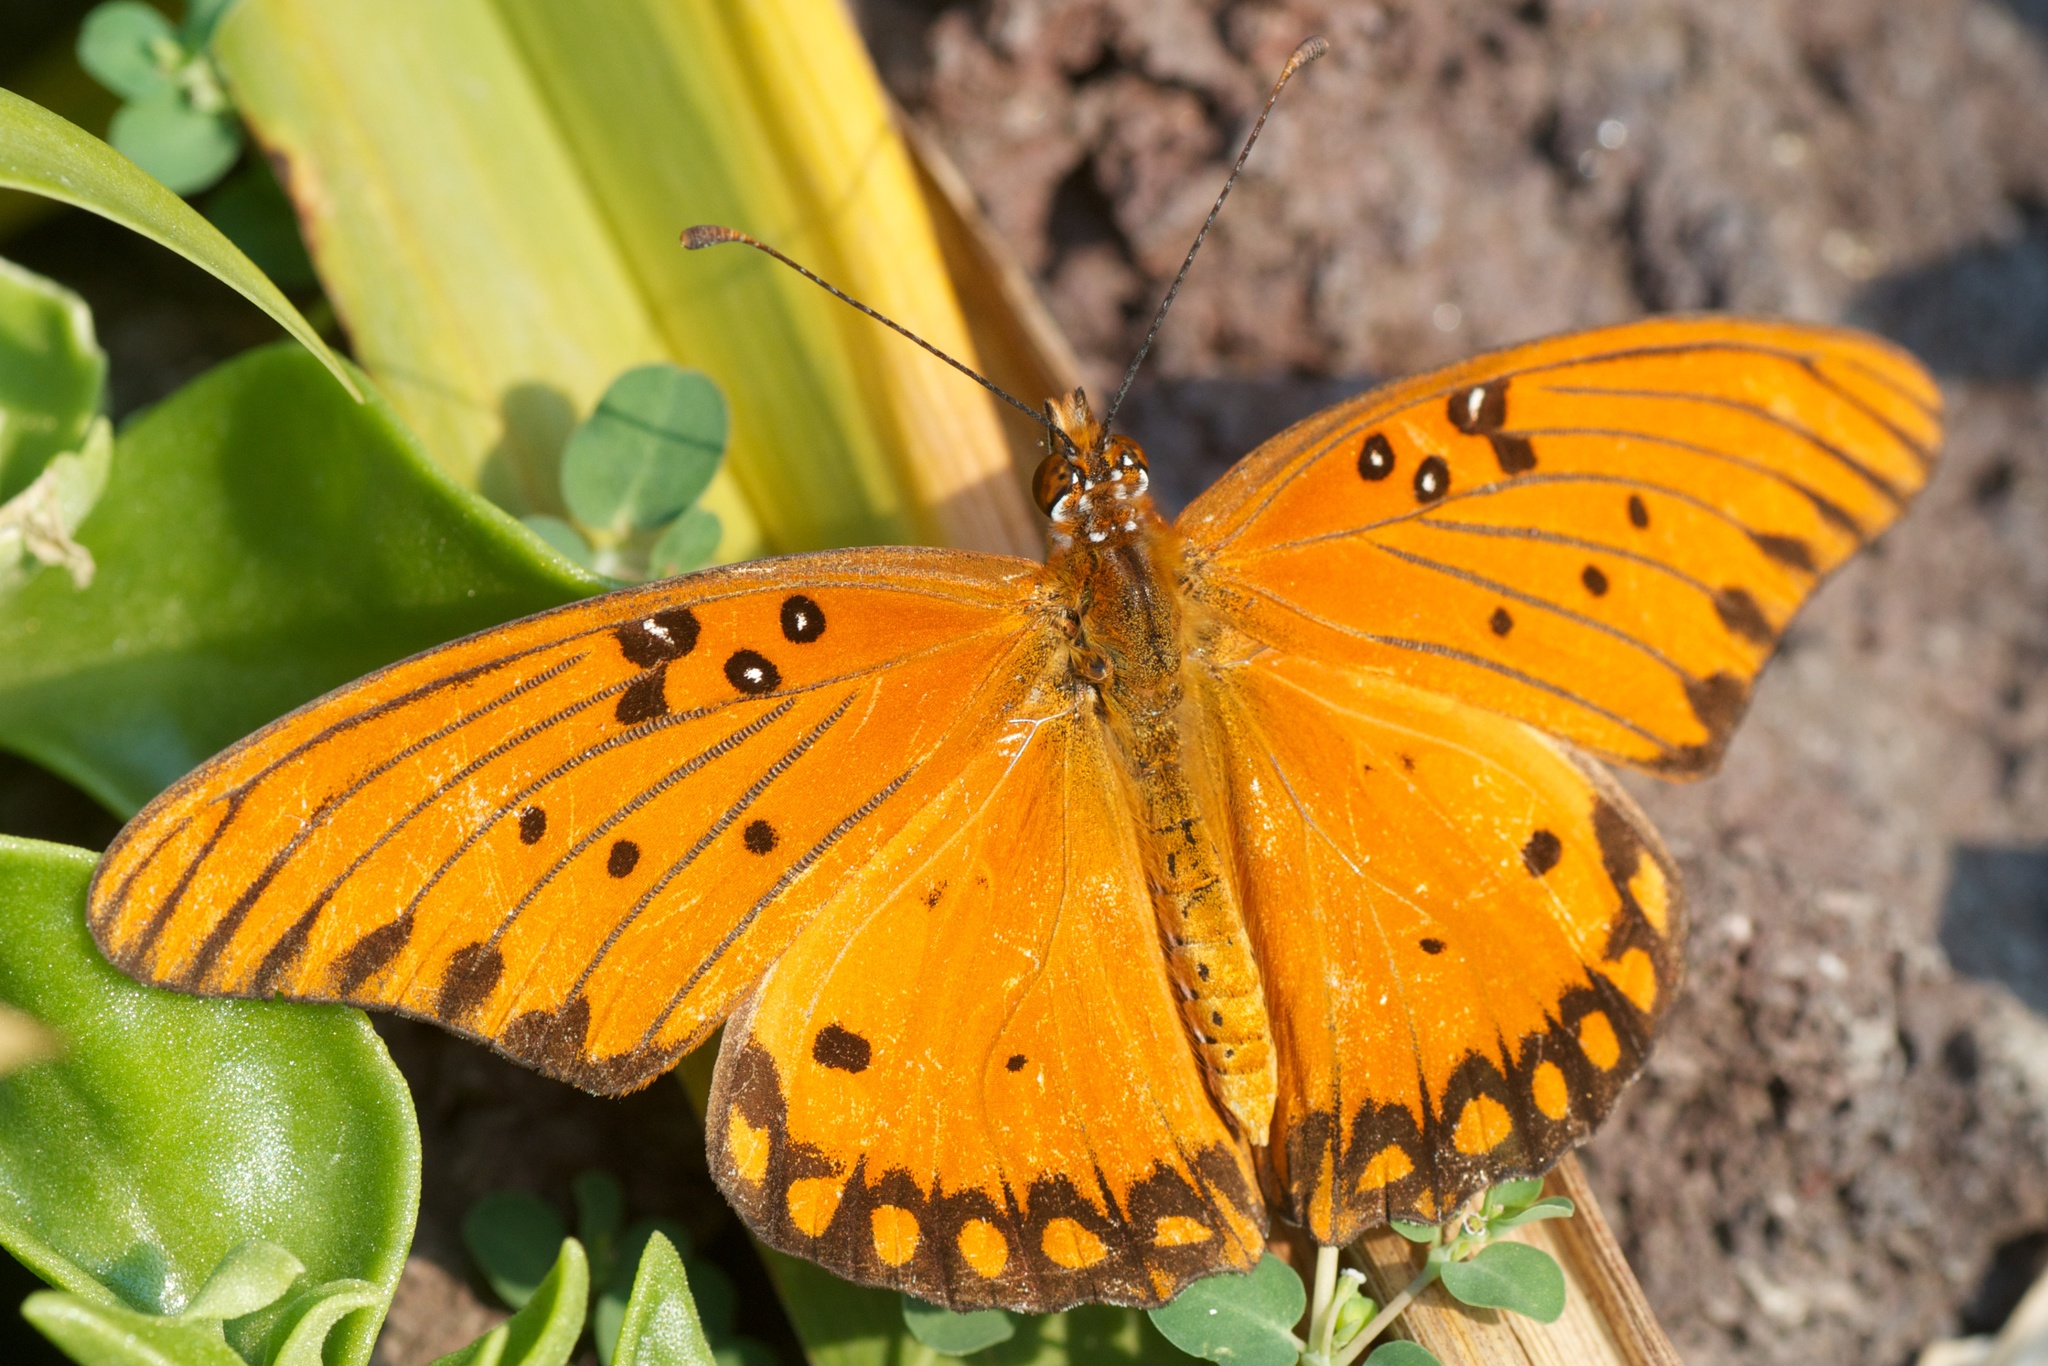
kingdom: Animalia
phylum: Arthropoda
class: Insecta
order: Lepidoptera
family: Nymphalidae
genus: Dione
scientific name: Dione vanillae
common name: Gulf fritillary
